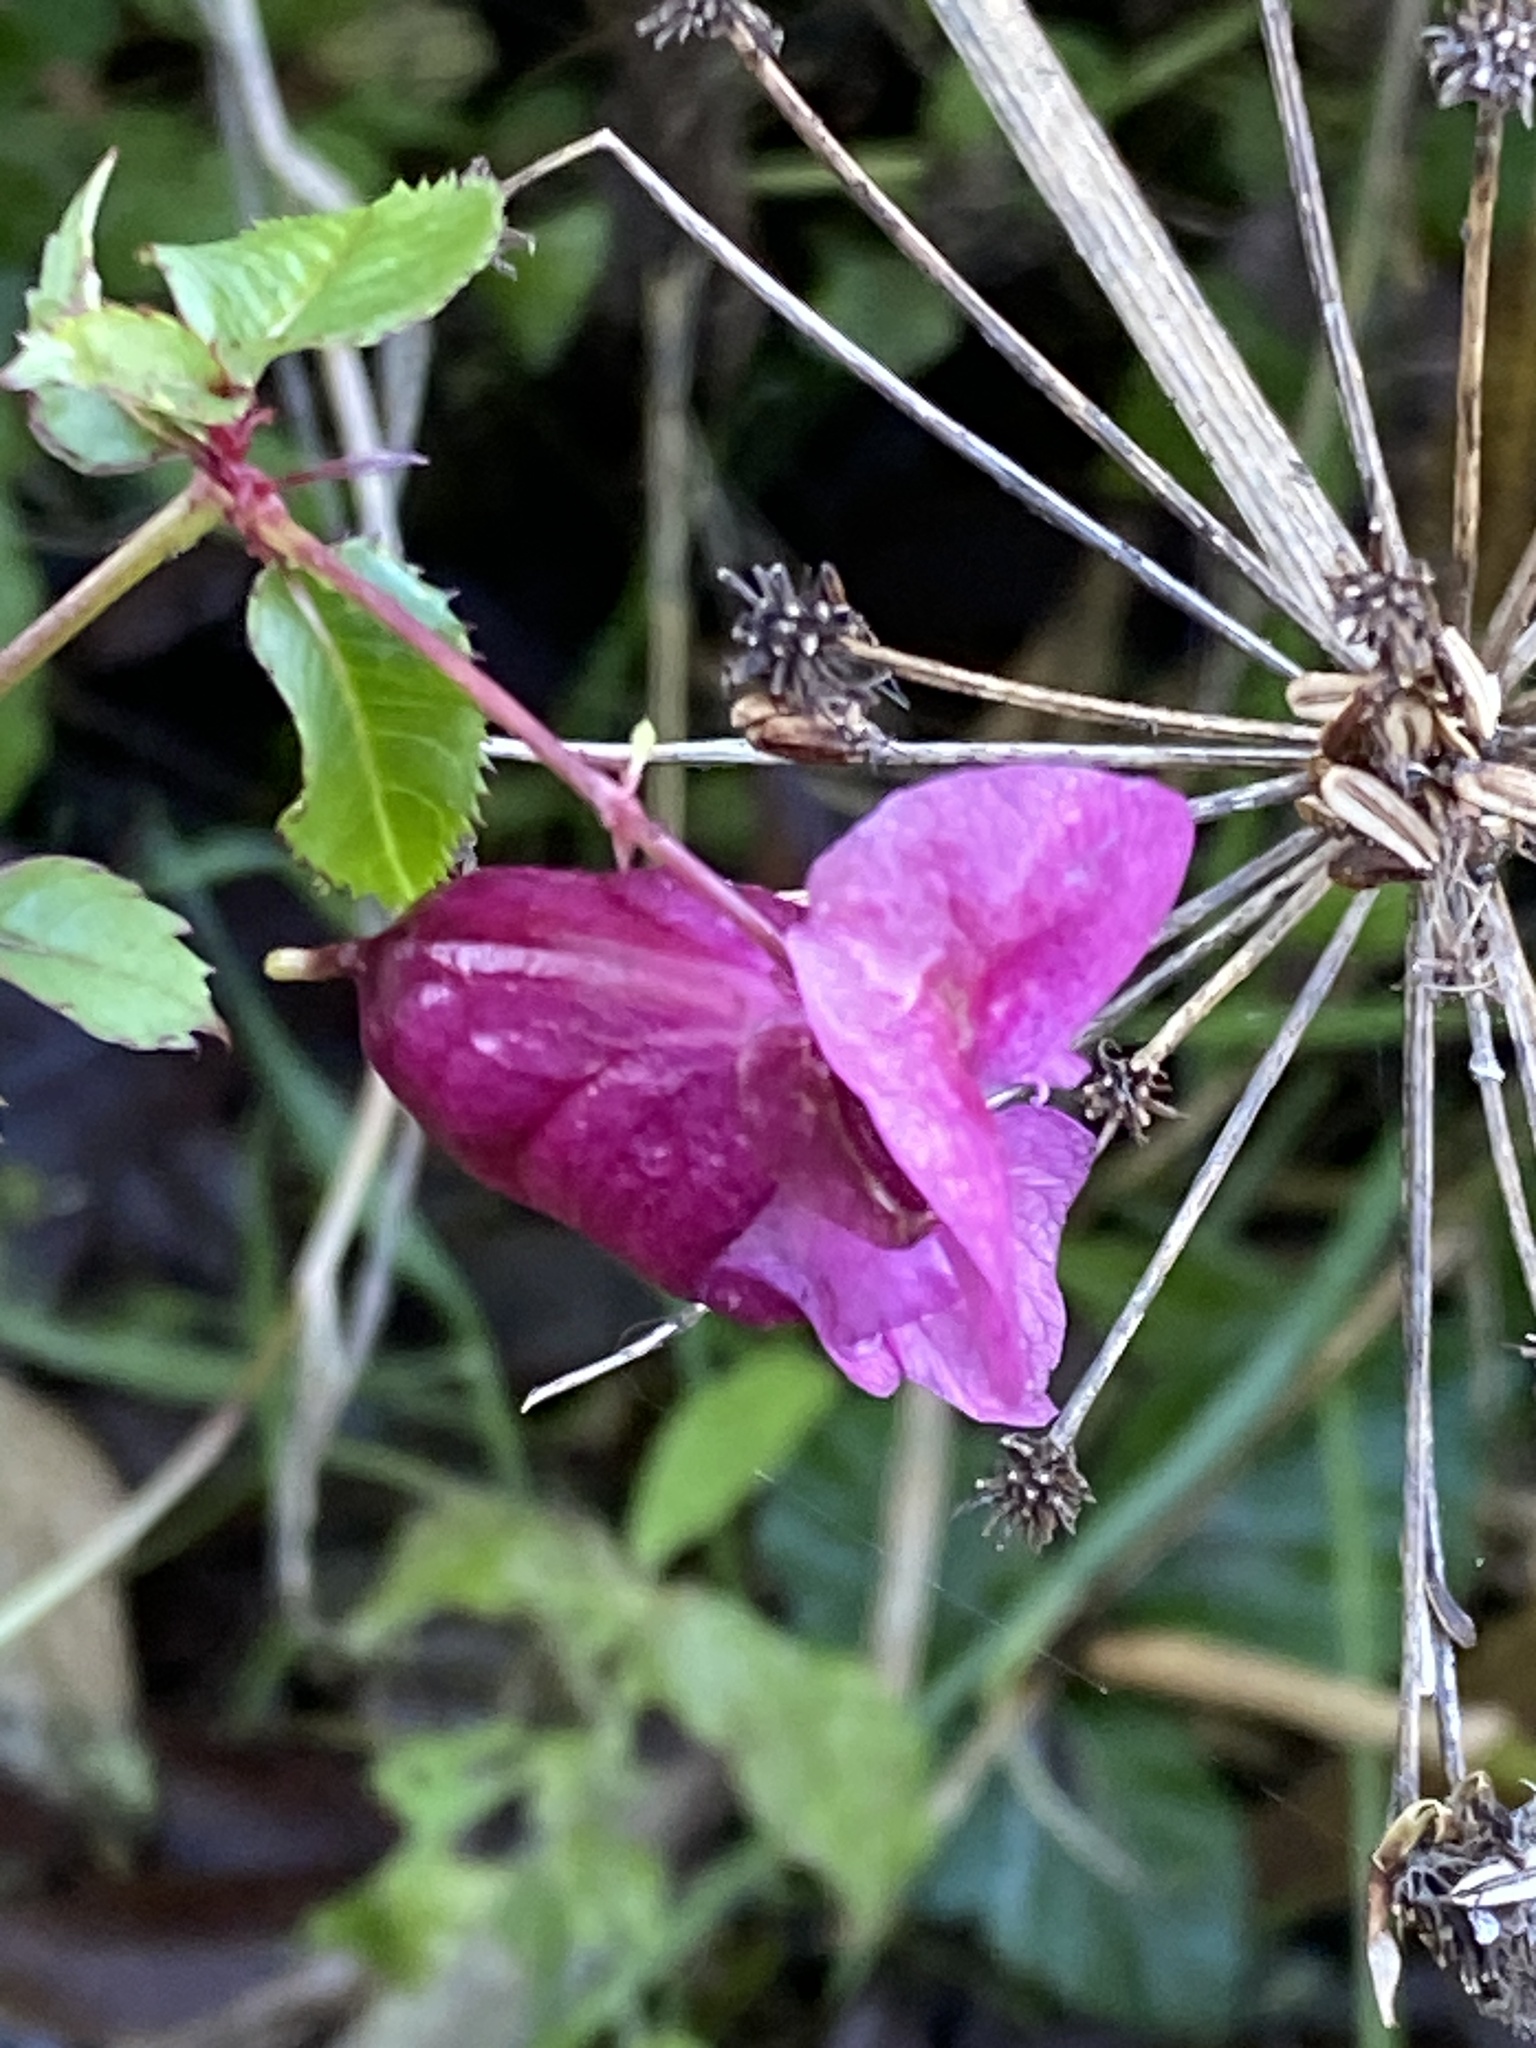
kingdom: Plantae
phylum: Tracheophyta
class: Magnoliopsida
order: Ericales
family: Balsaminaceae
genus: Impatiens
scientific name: Impatiens glandulifera
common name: Himalayan balsam
